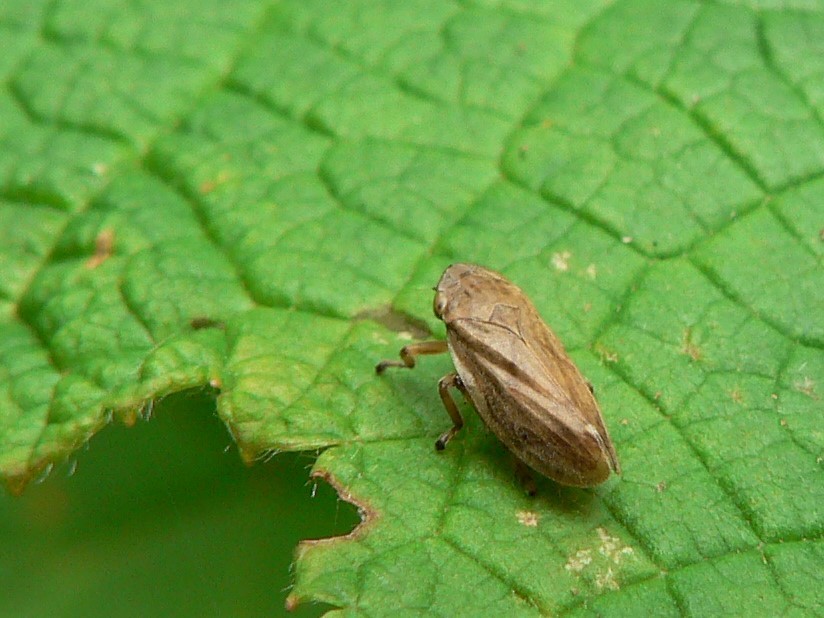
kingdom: Animalia
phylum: Arthropoda
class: Insecta
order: Hemiptera
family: Aphrophoridae
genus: Philaenus
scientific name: Philaenus spumarius
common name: Meadow spittlebug
